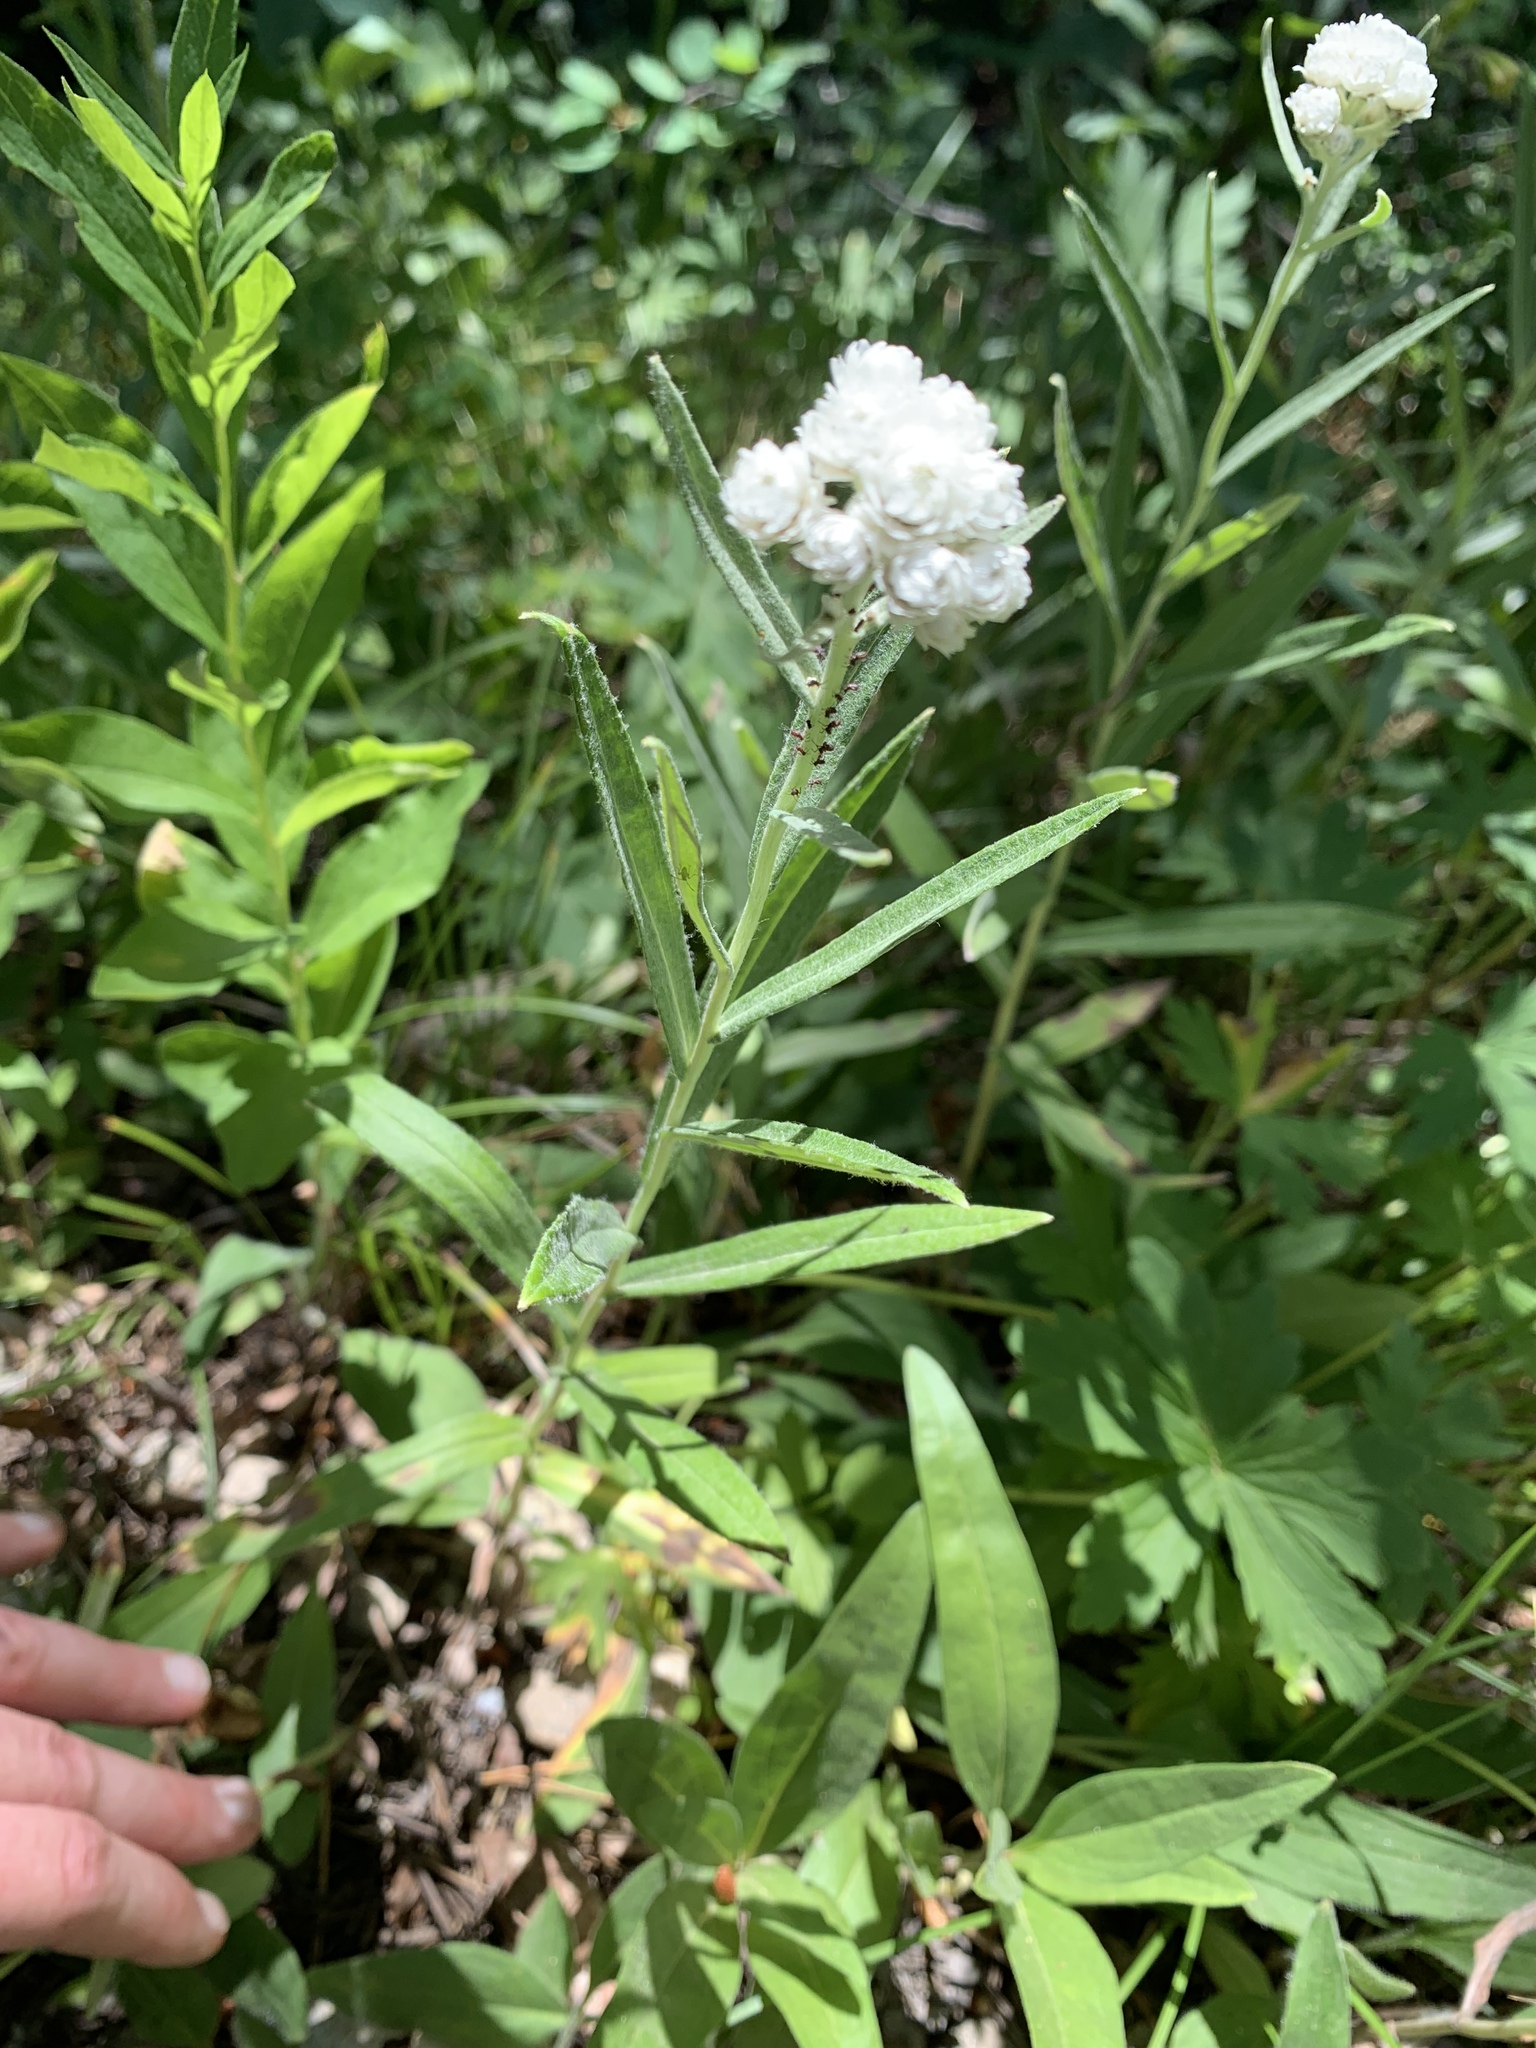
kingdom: Plantae
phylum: Tracheophyta
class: Magnoliopsida
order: Asterales
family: Asteraceae
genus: Anaphalis
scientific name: Anaphalis margaritacea
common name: Pearly everlasting
